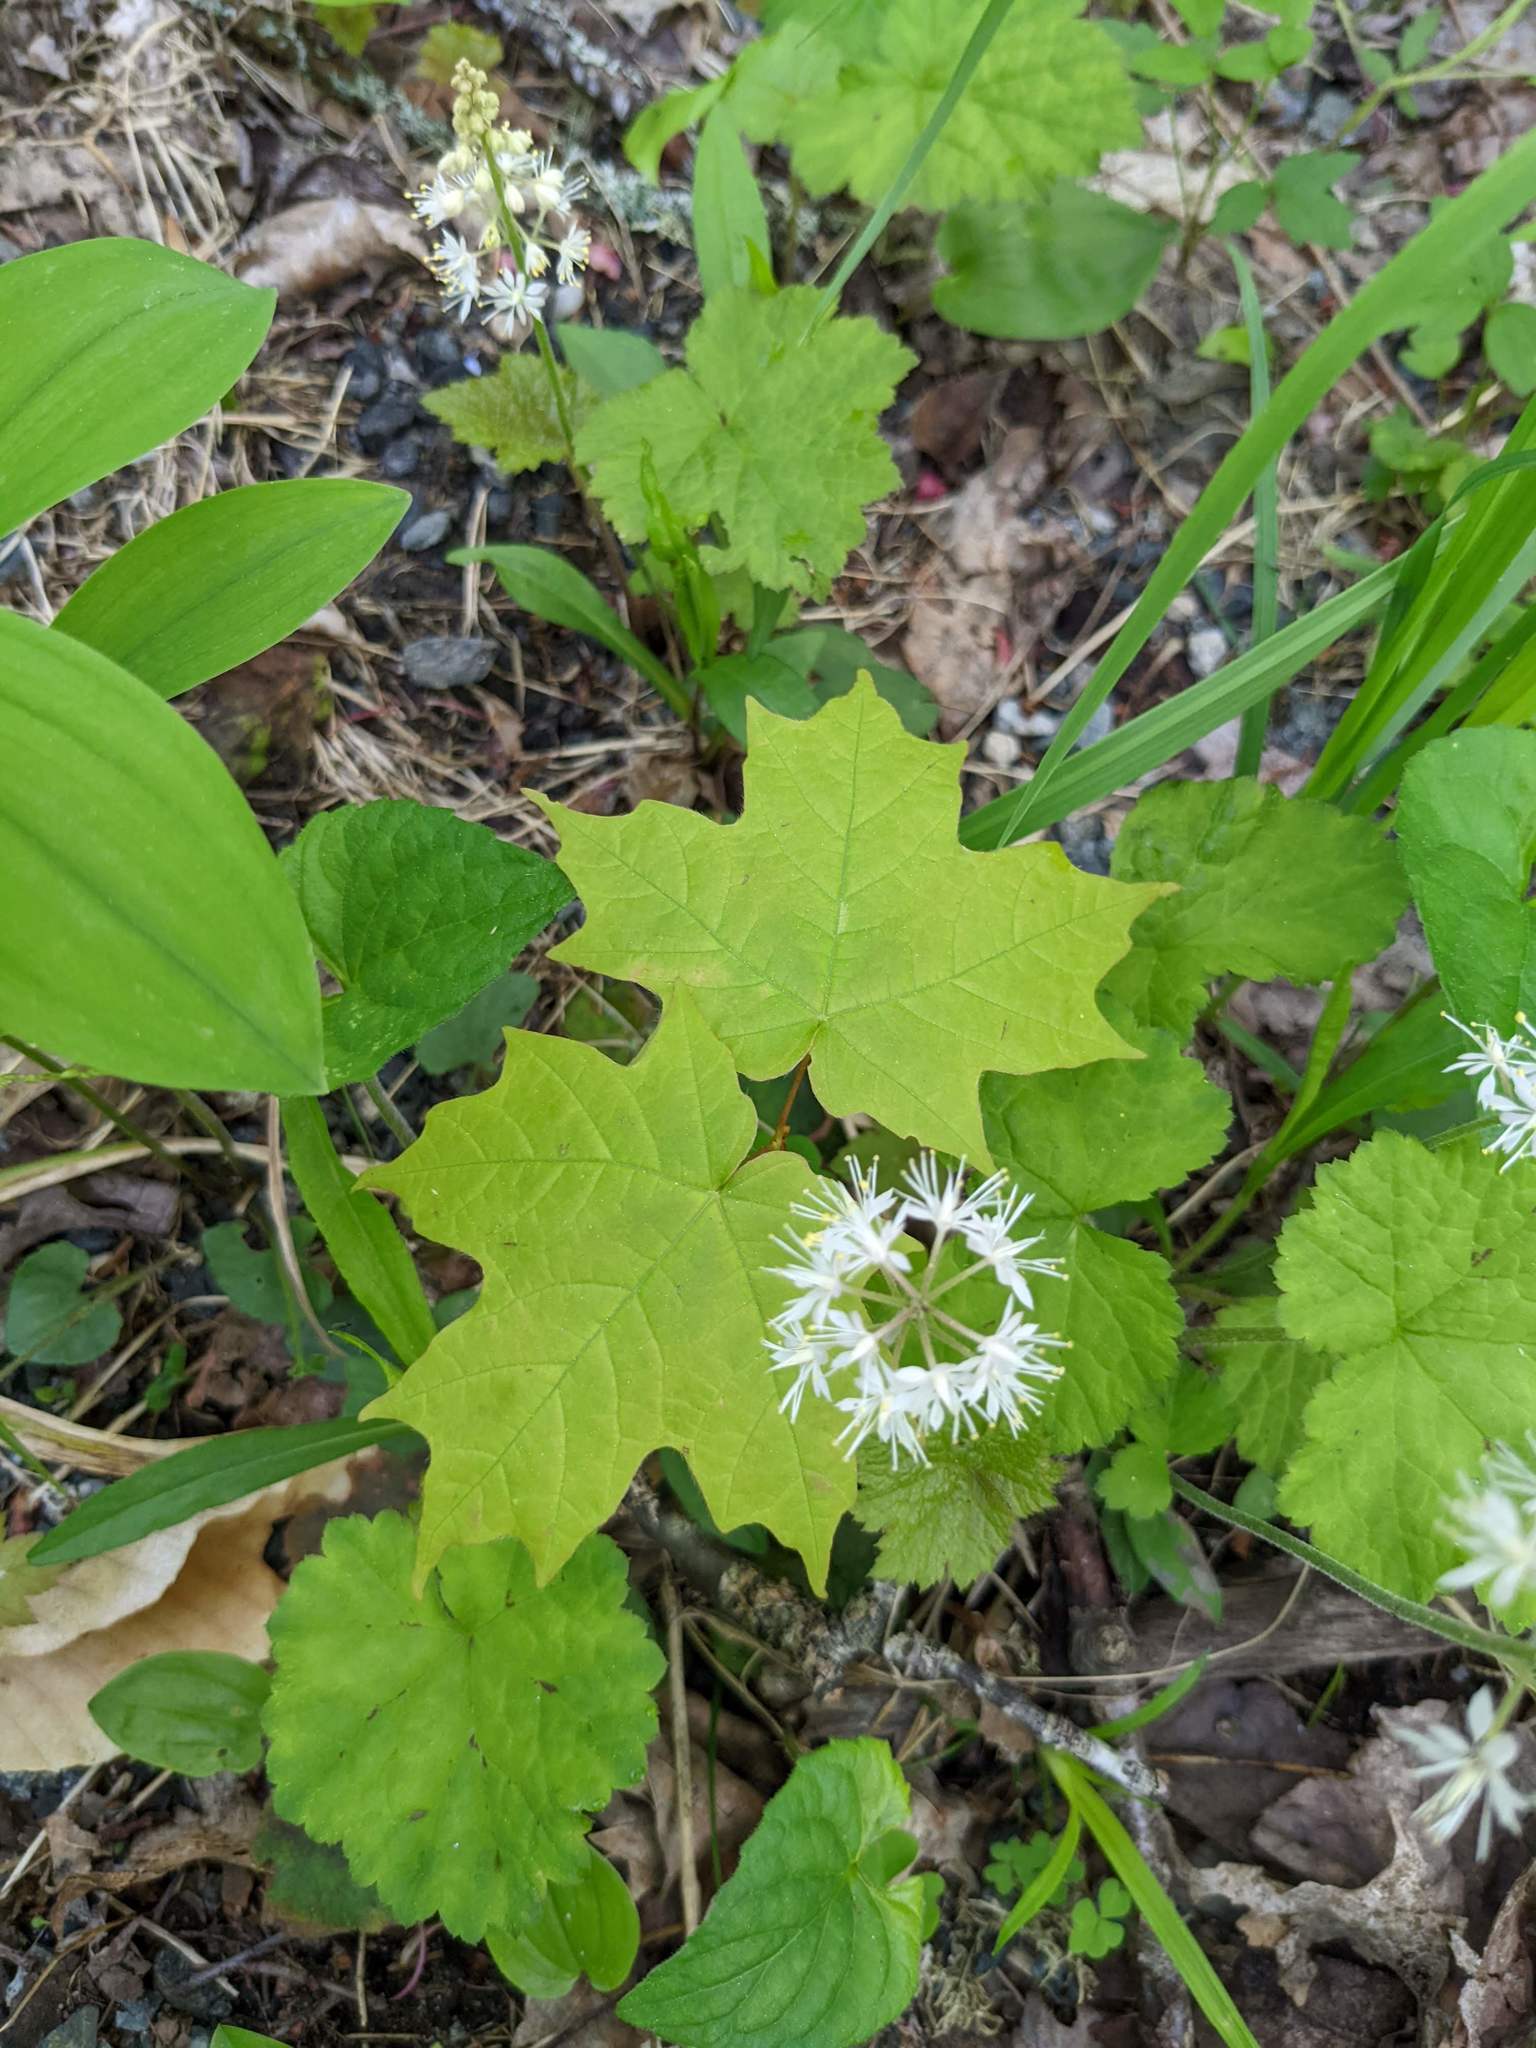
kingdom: Plantae
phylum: Tracheophyta
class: Magnoliopsida
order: Saxifragales
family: Saxifragaceae
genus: Tiarella
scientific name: Tiarella stolonifera
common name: Stoloniferous foamflower
